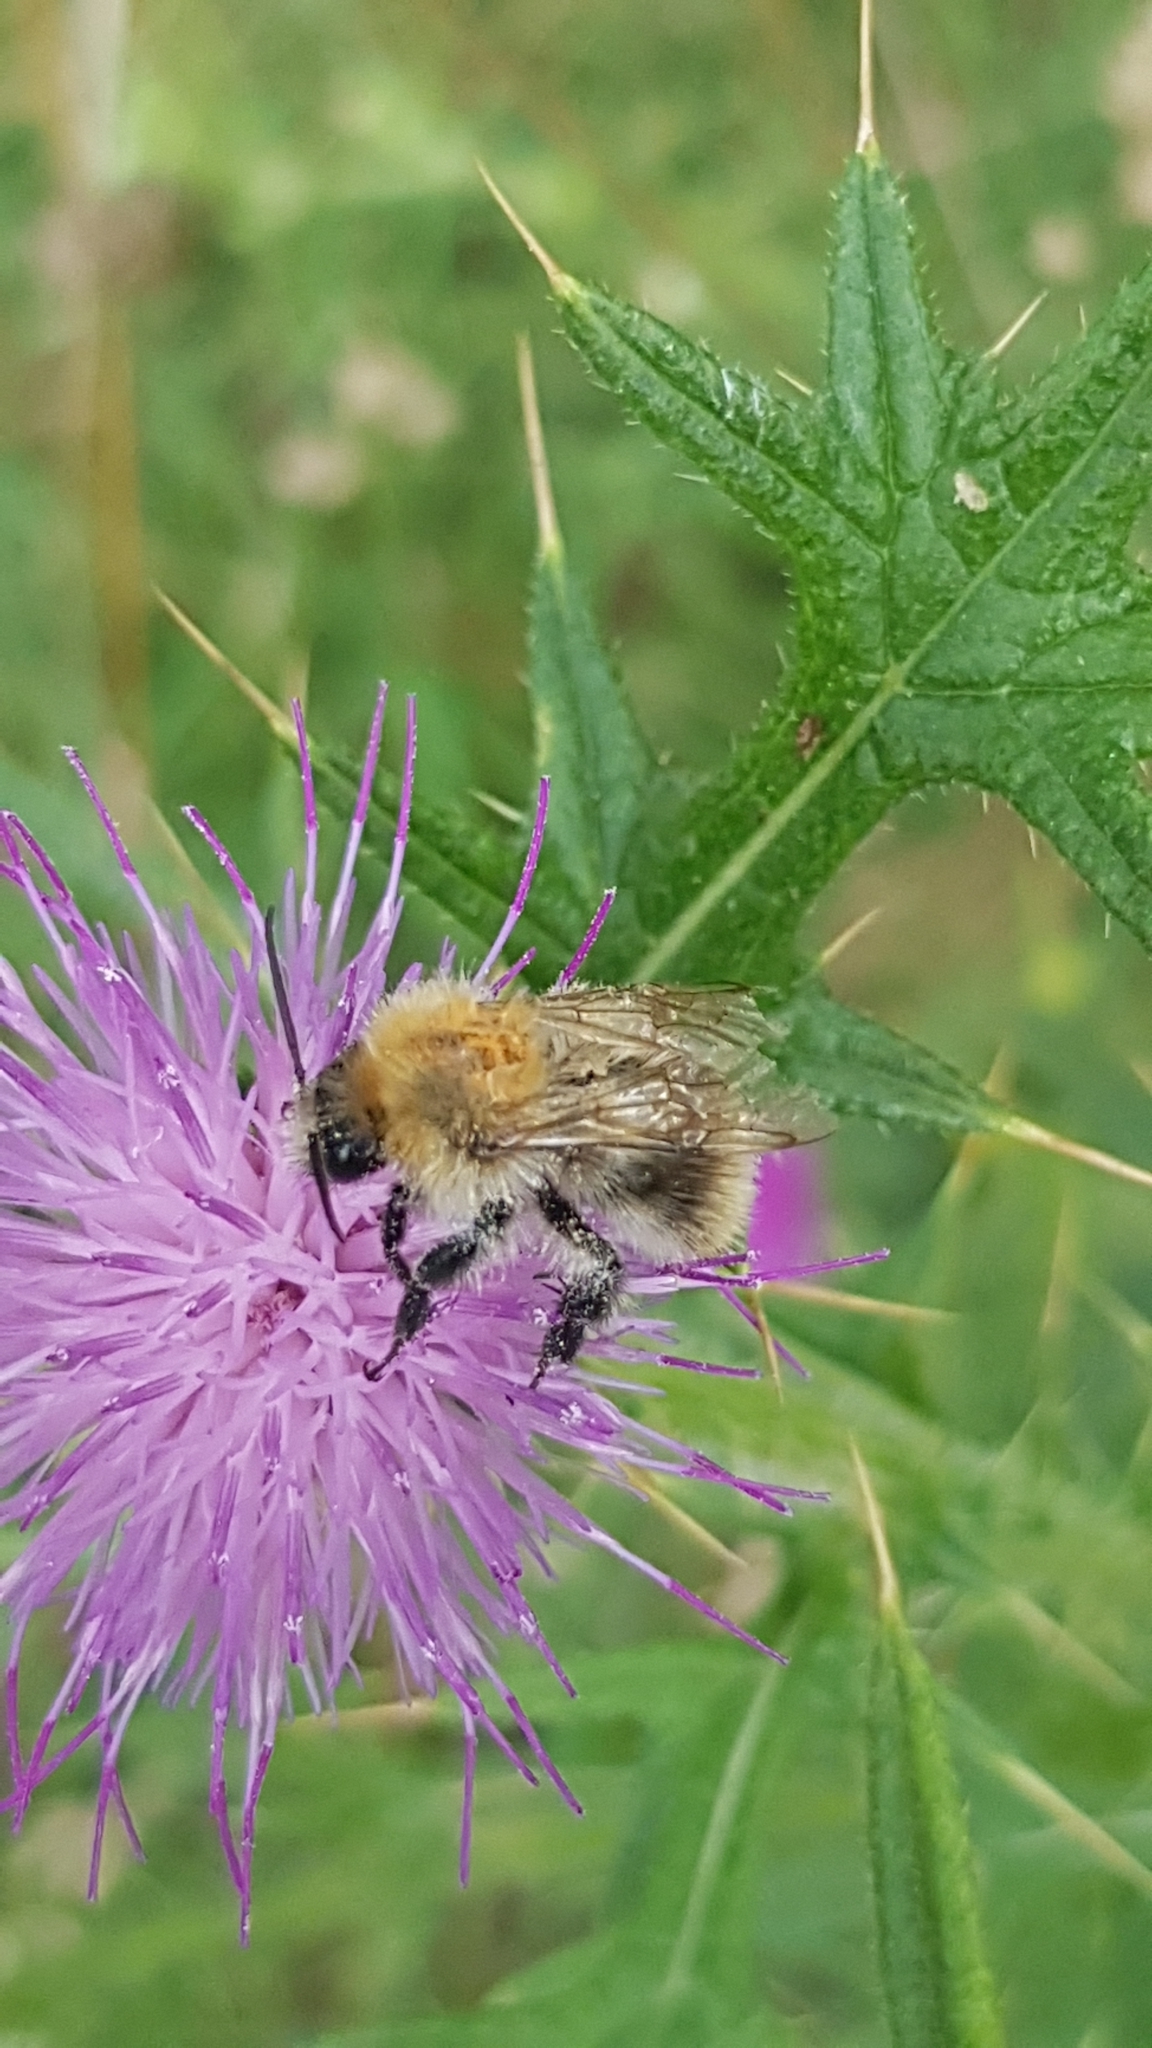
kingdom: Animalia
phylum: Arthropoda
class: Insecta
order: Hymenoptera
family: Apidae
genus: Bombus
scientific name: Bombus pascuorum
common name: Common carder bee
